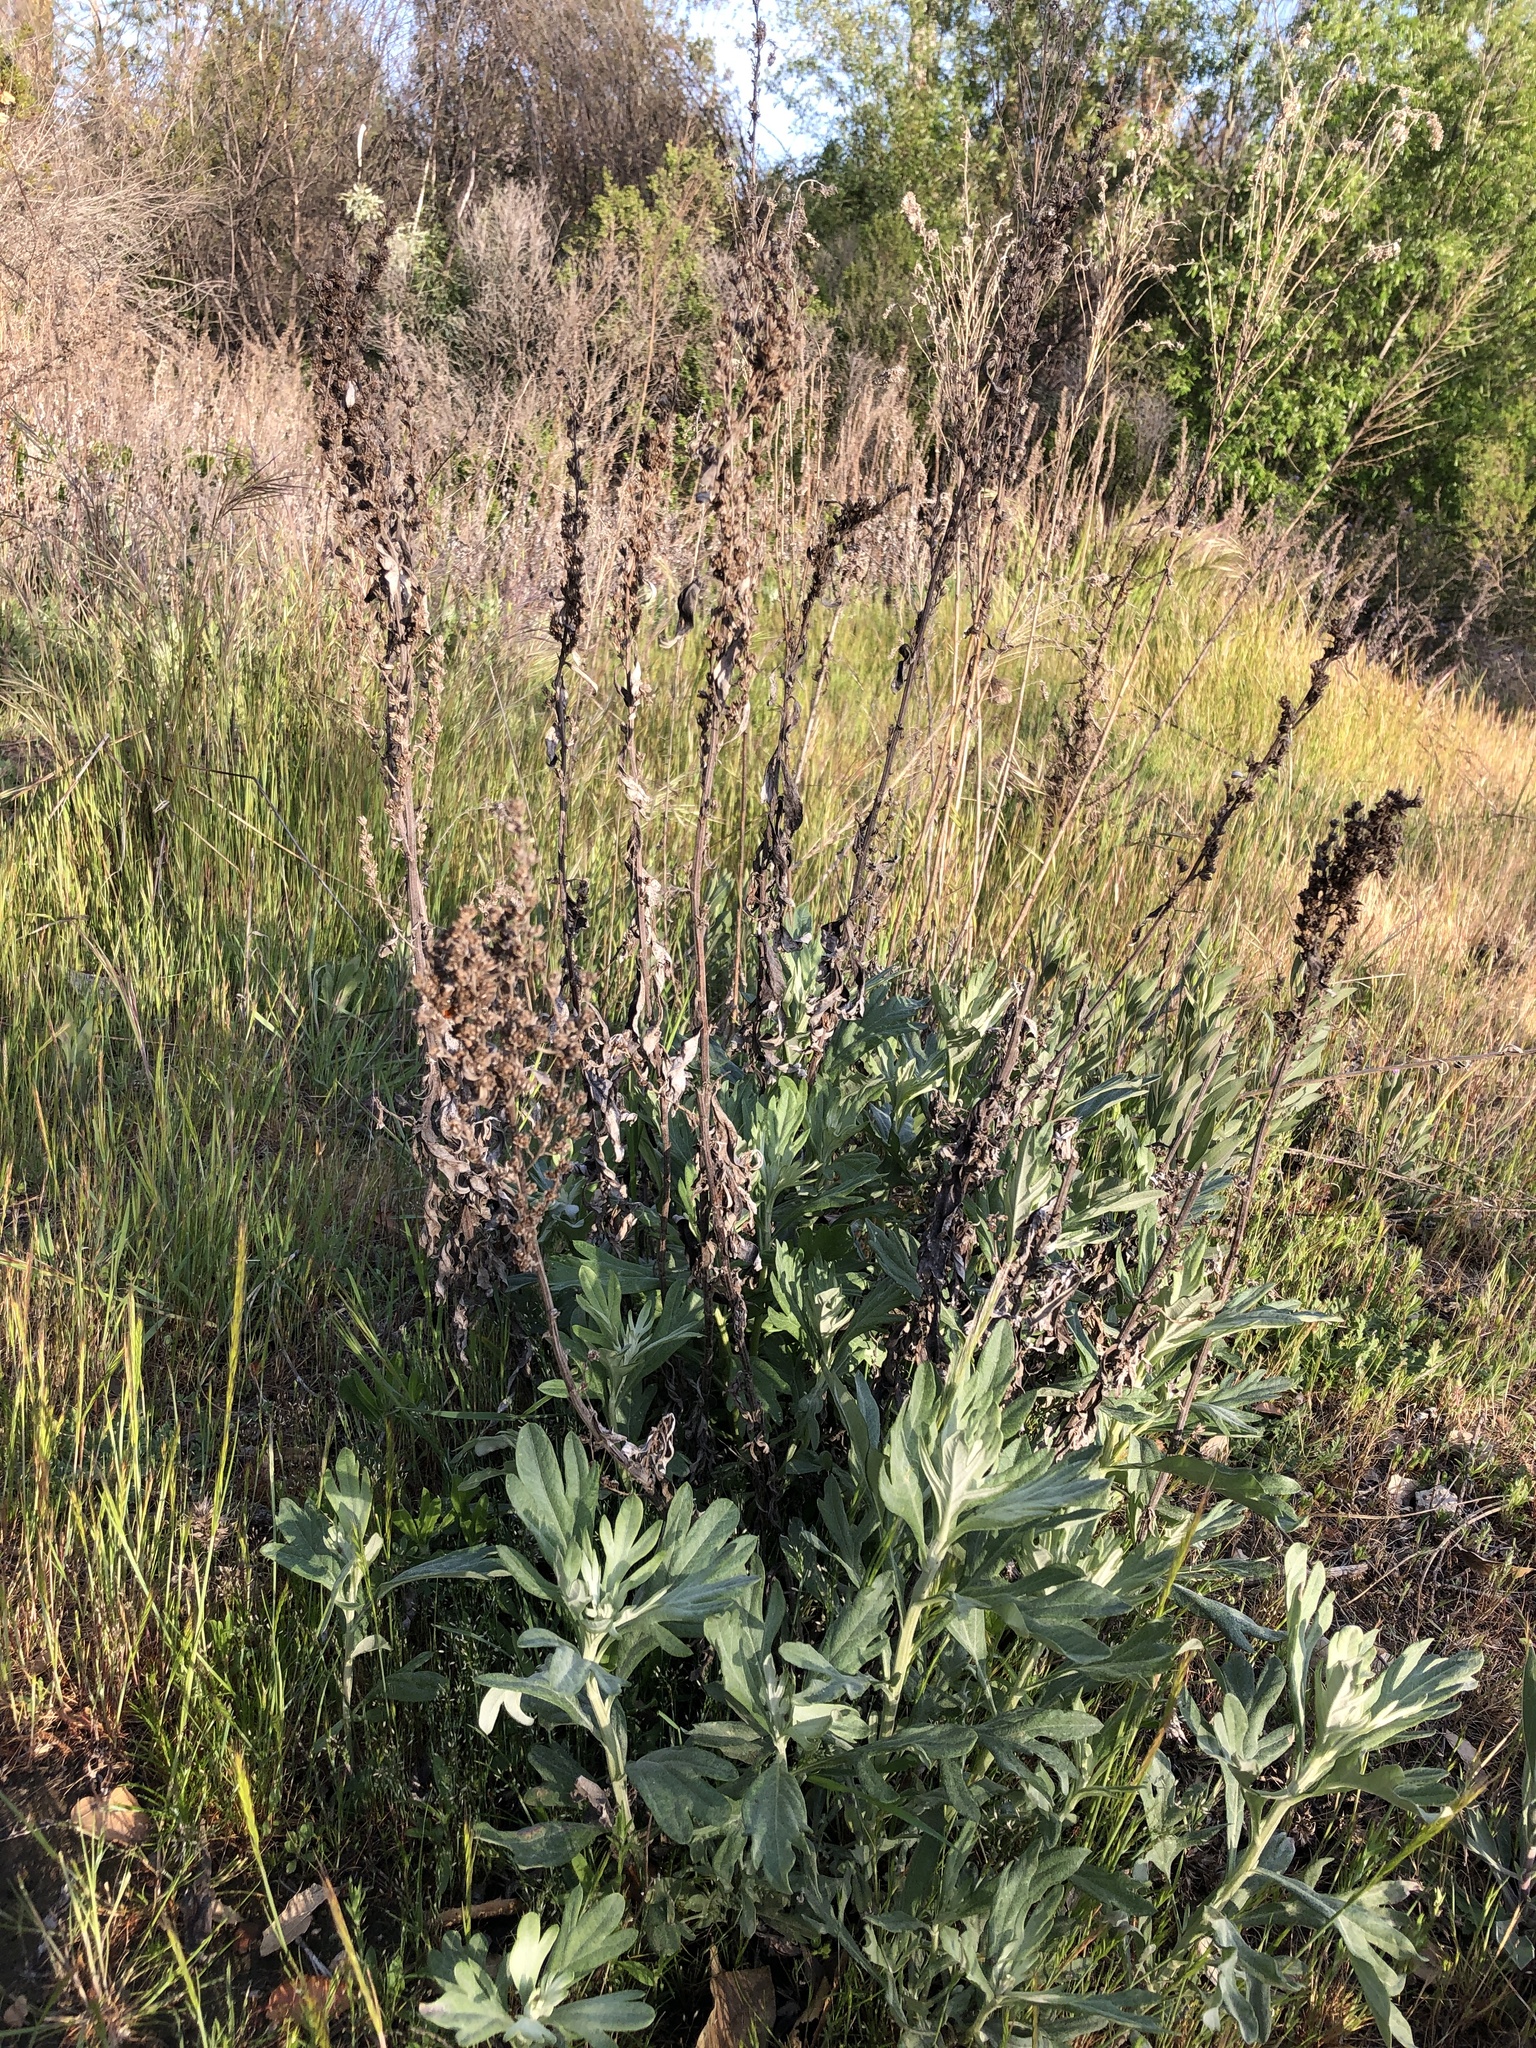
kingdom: Plantae
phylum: Tracheophyta
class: Magnoliopsida
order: Asterales
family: Asteraceae
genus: Artemisia
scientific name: Artemisia douglasiana
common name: Northwest mugwort
